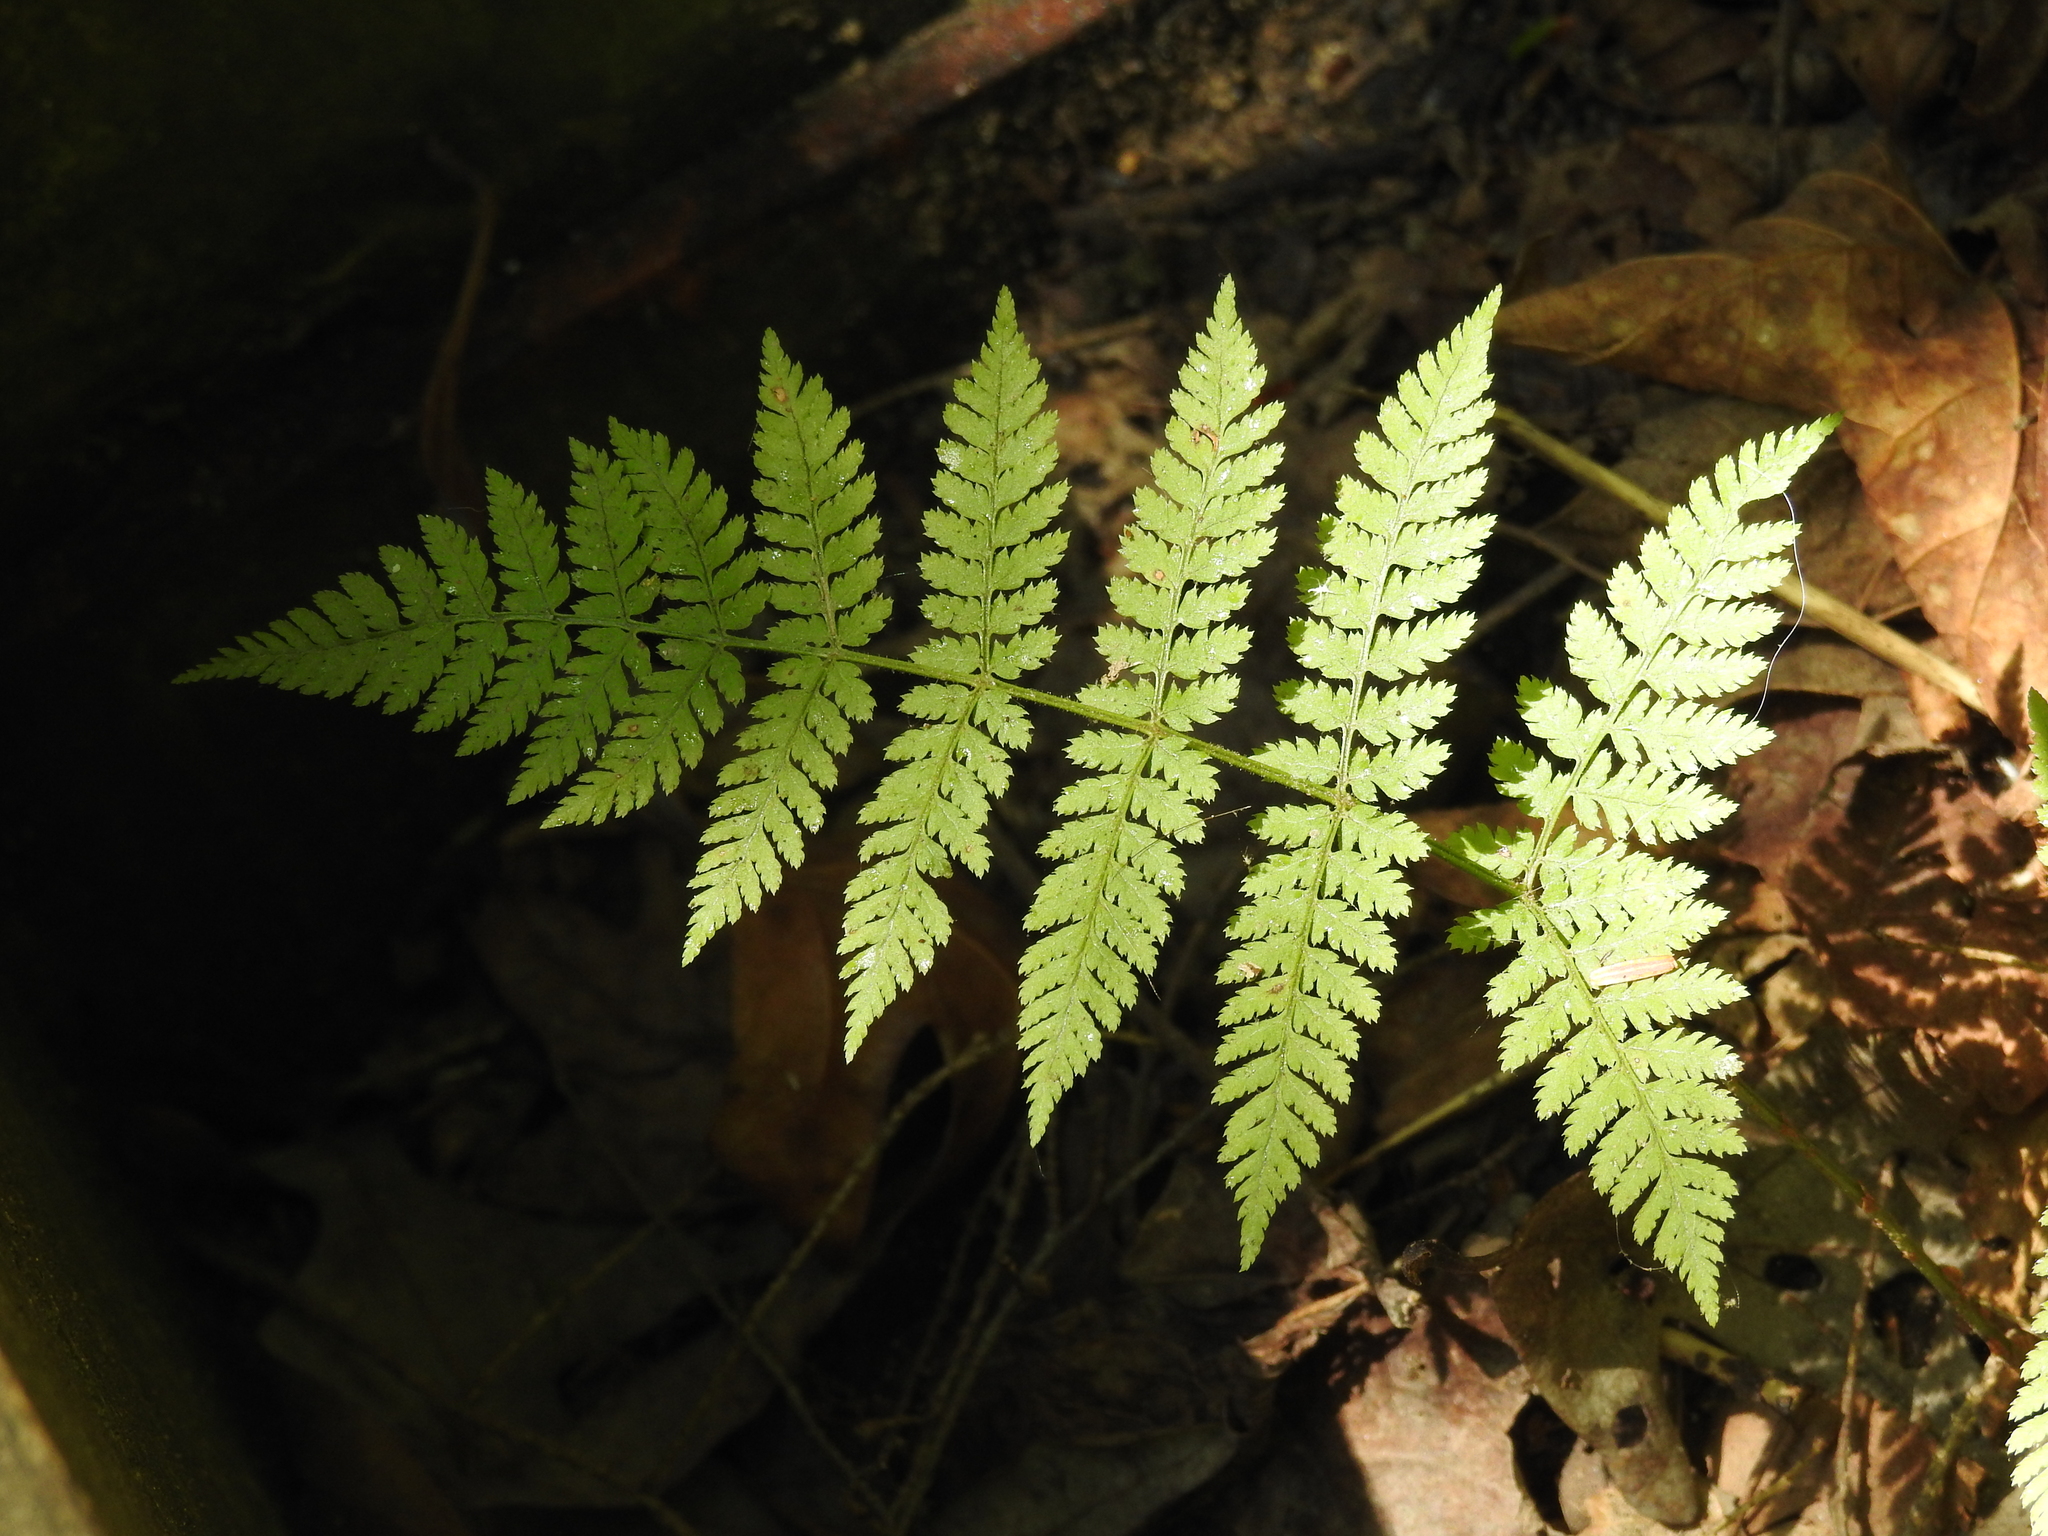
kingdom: Plantae
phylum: Tracheophyta
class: Polypodiopsida
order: Polypodiales
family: Dryopteridaceae
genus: Dryopteris
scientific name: Dryopteris intermedia
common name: Evergreen wood fern
